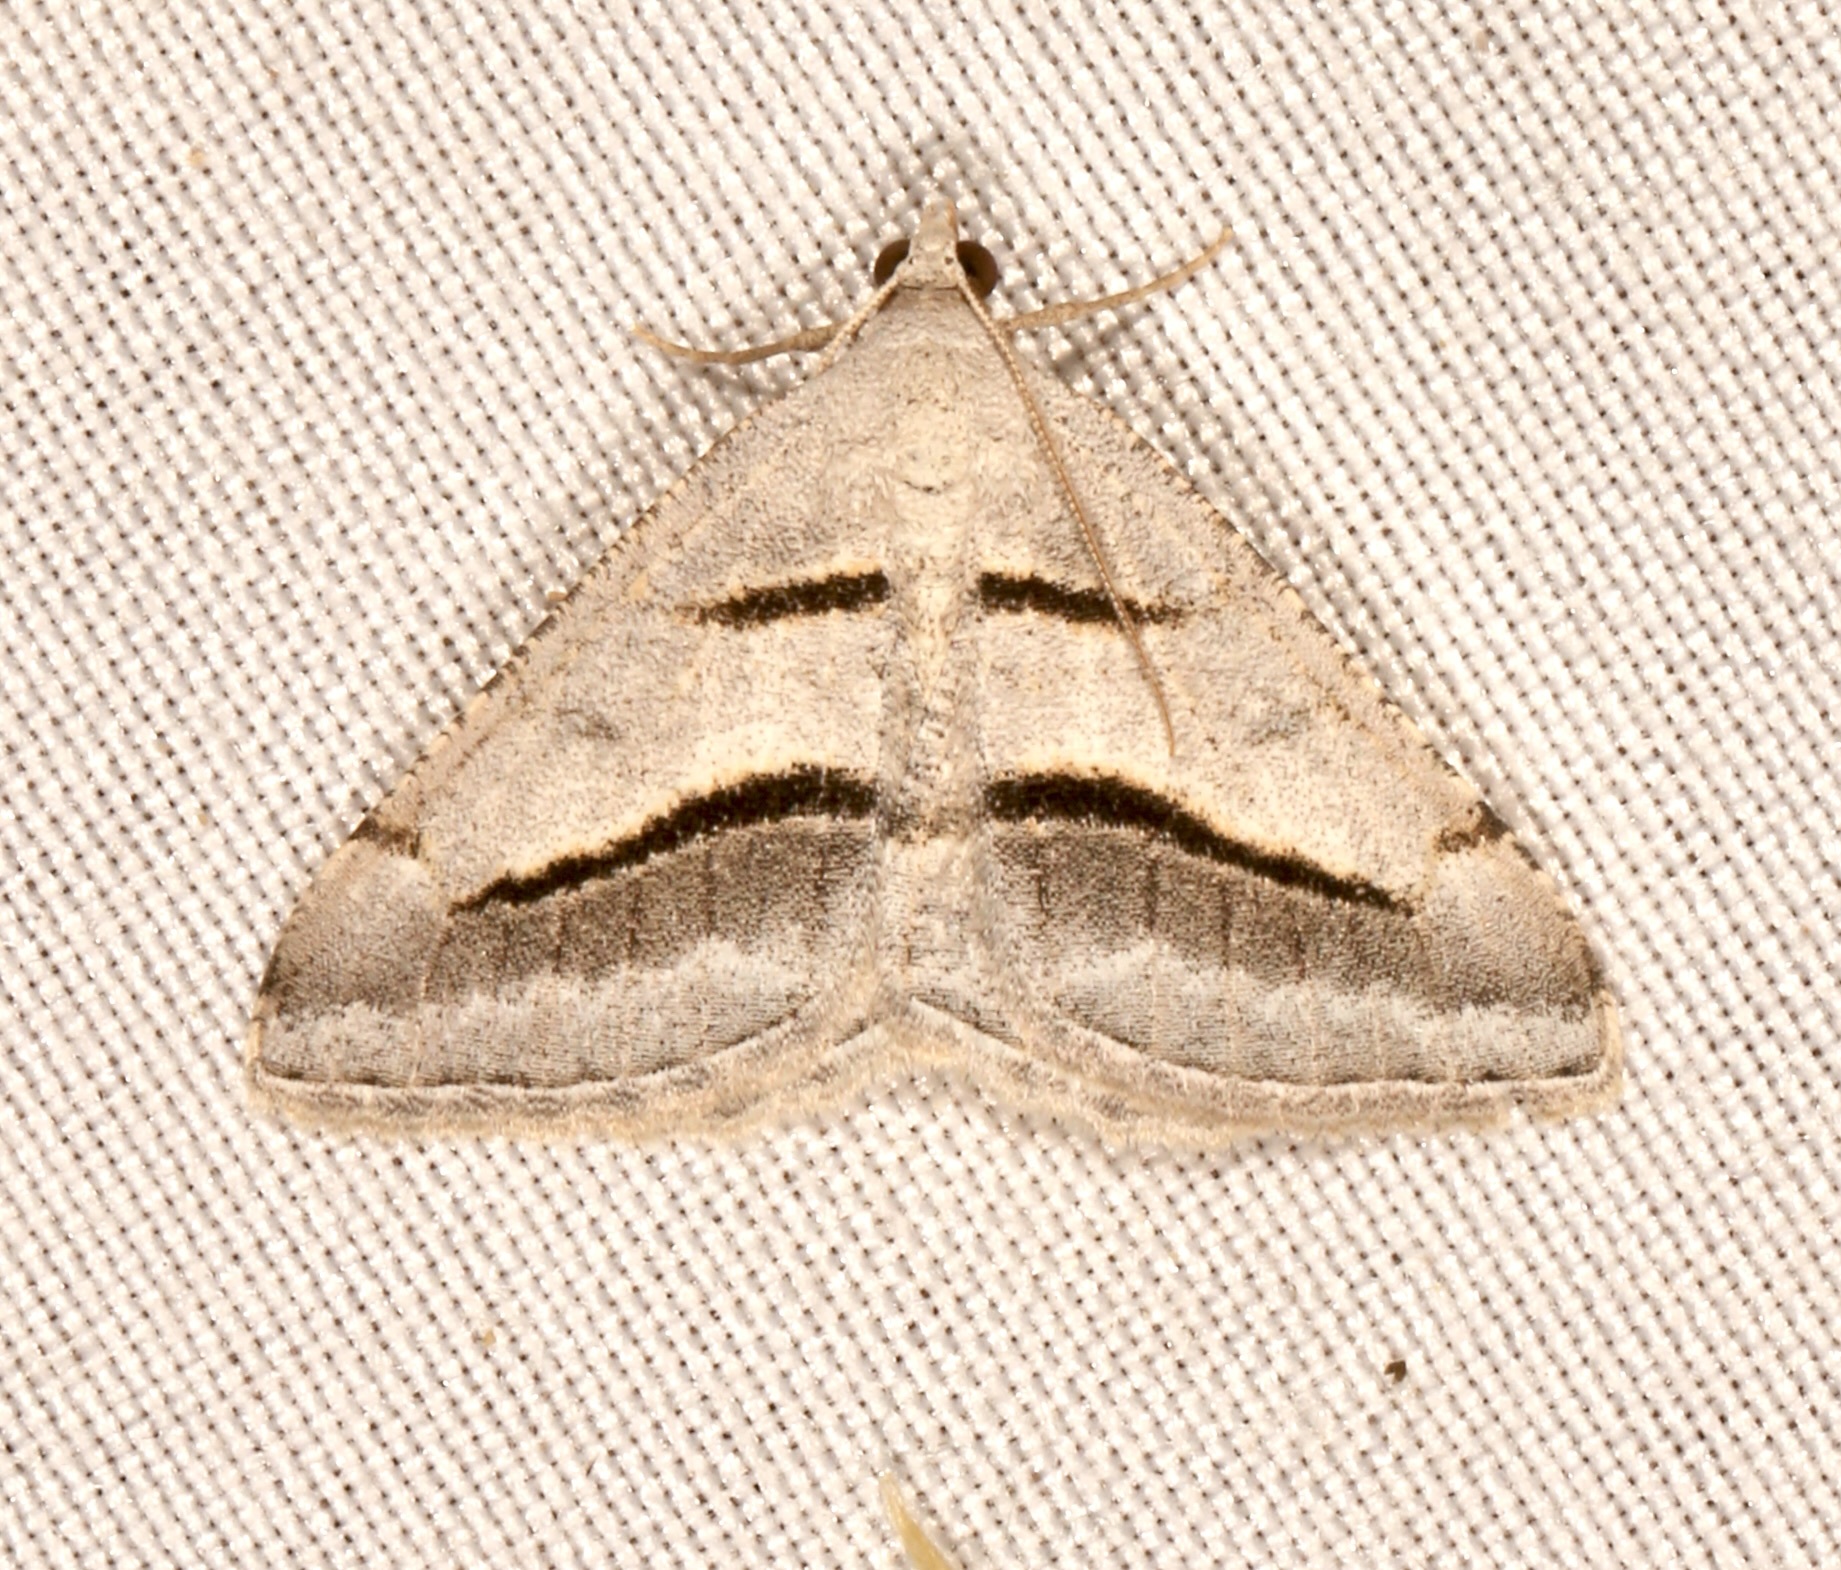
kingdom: Animalia
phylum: Arthropoda
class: Insecta
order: Lepidoptera
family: Geometridae
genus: Digrammia
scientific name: Digrammia subminiata
